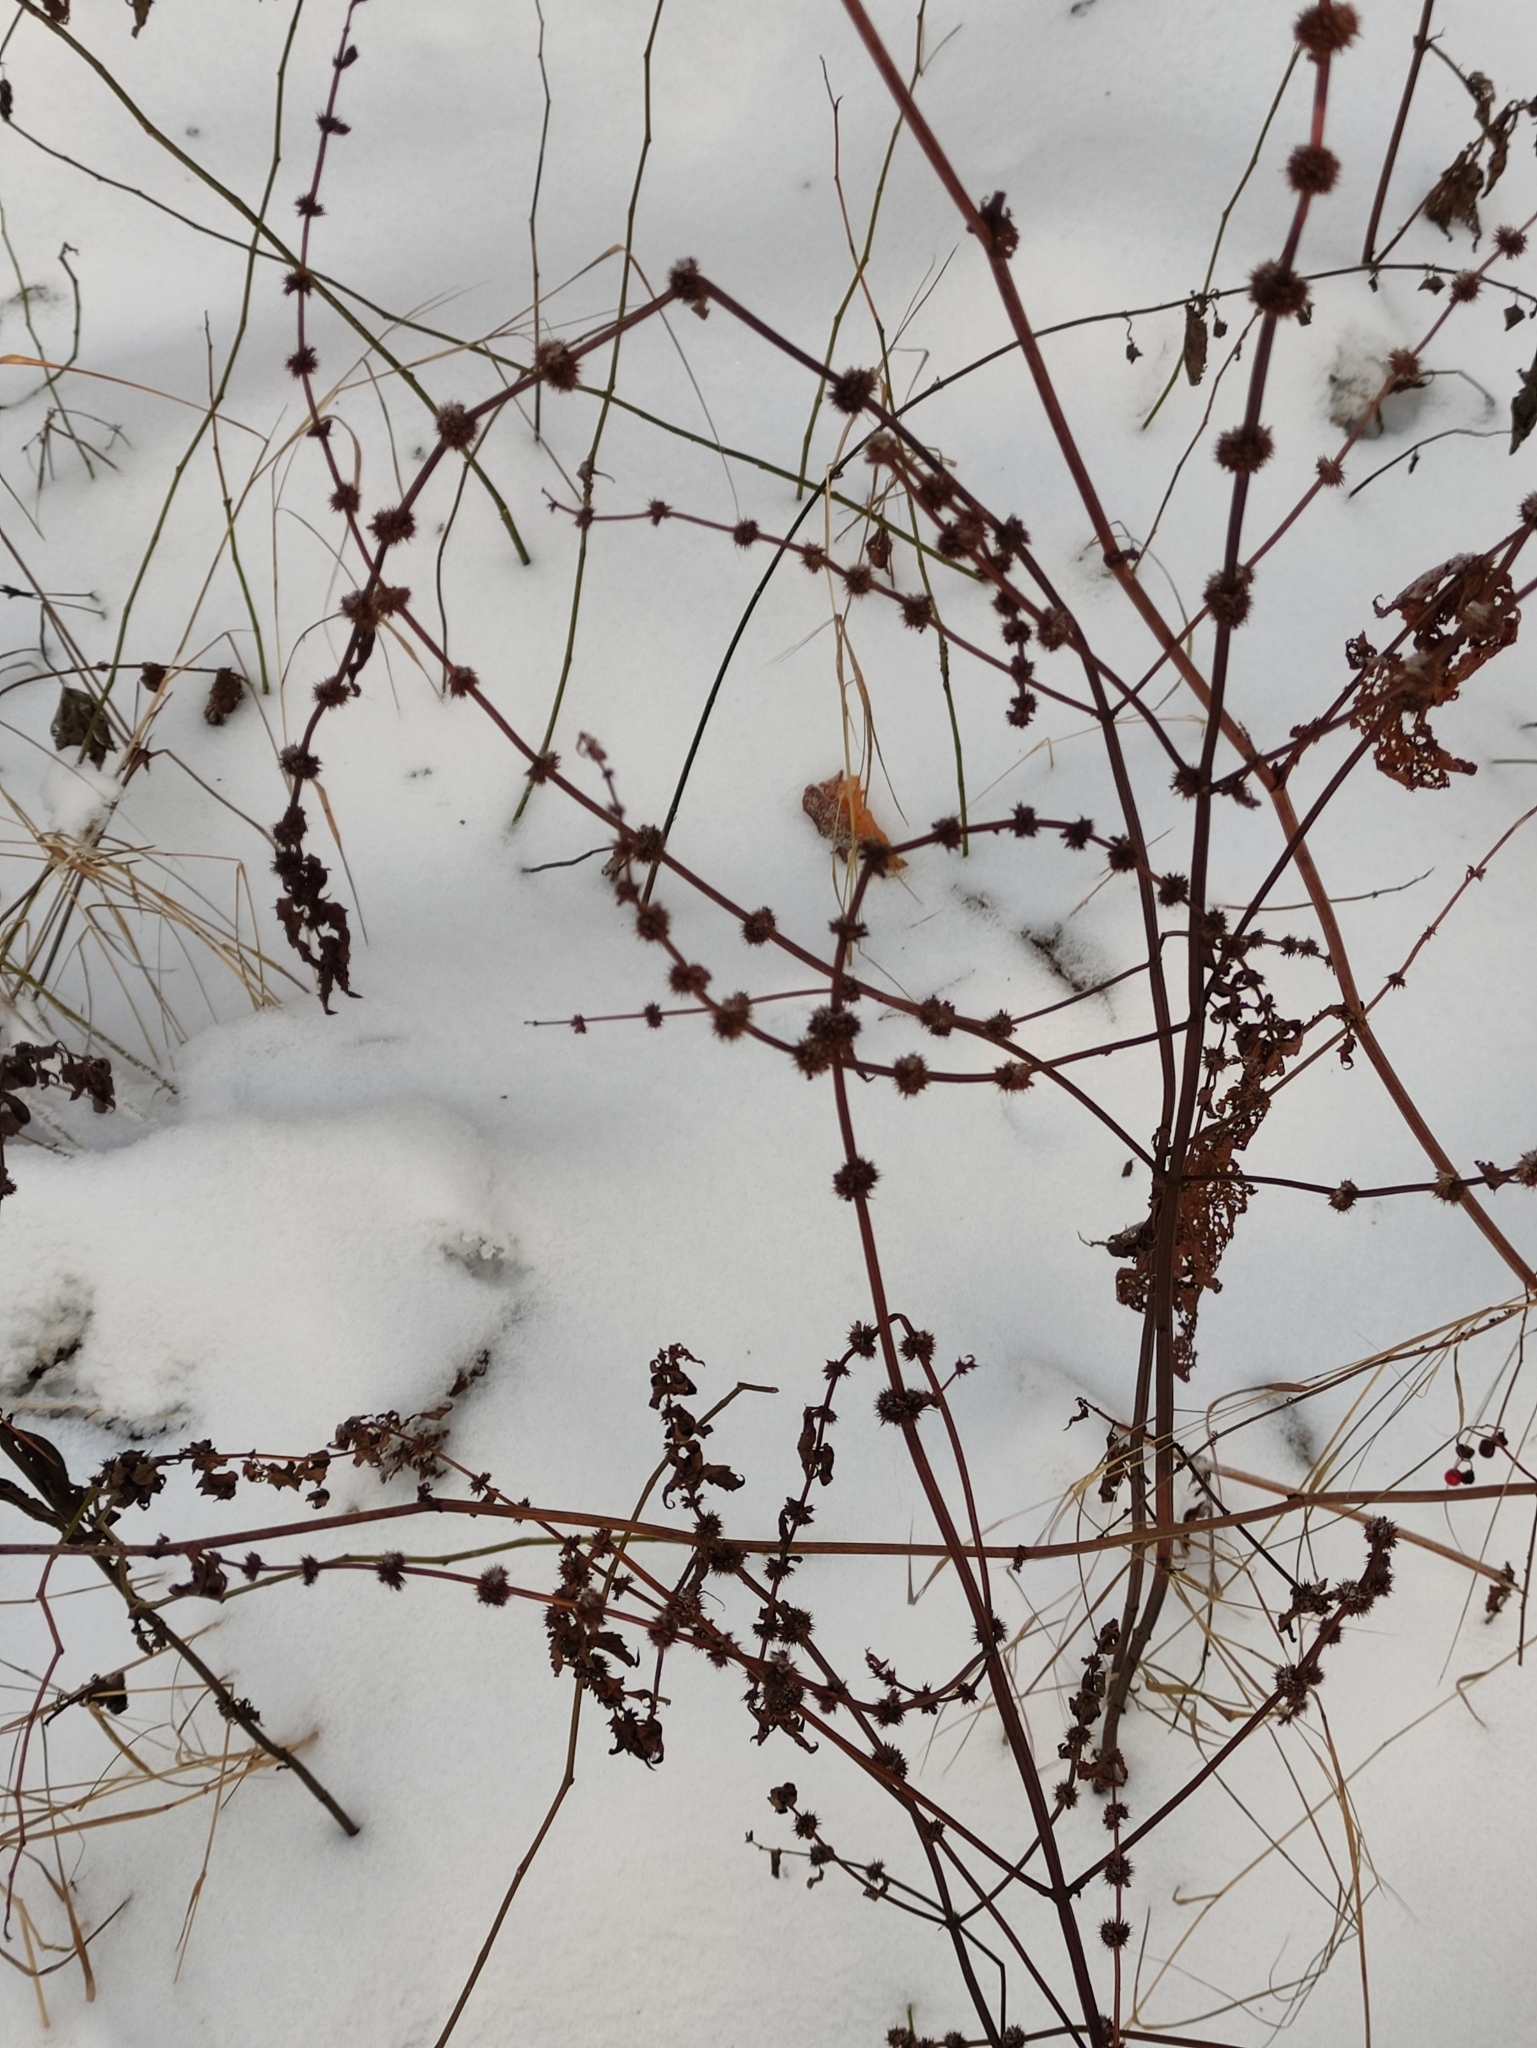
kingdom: Plantae
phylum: Tracheophyta
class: Magnoliopsida
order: Lamiales
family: Lamiaceae
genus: Lycopus
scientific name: Lycopus europaeus
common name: European bugleweed
